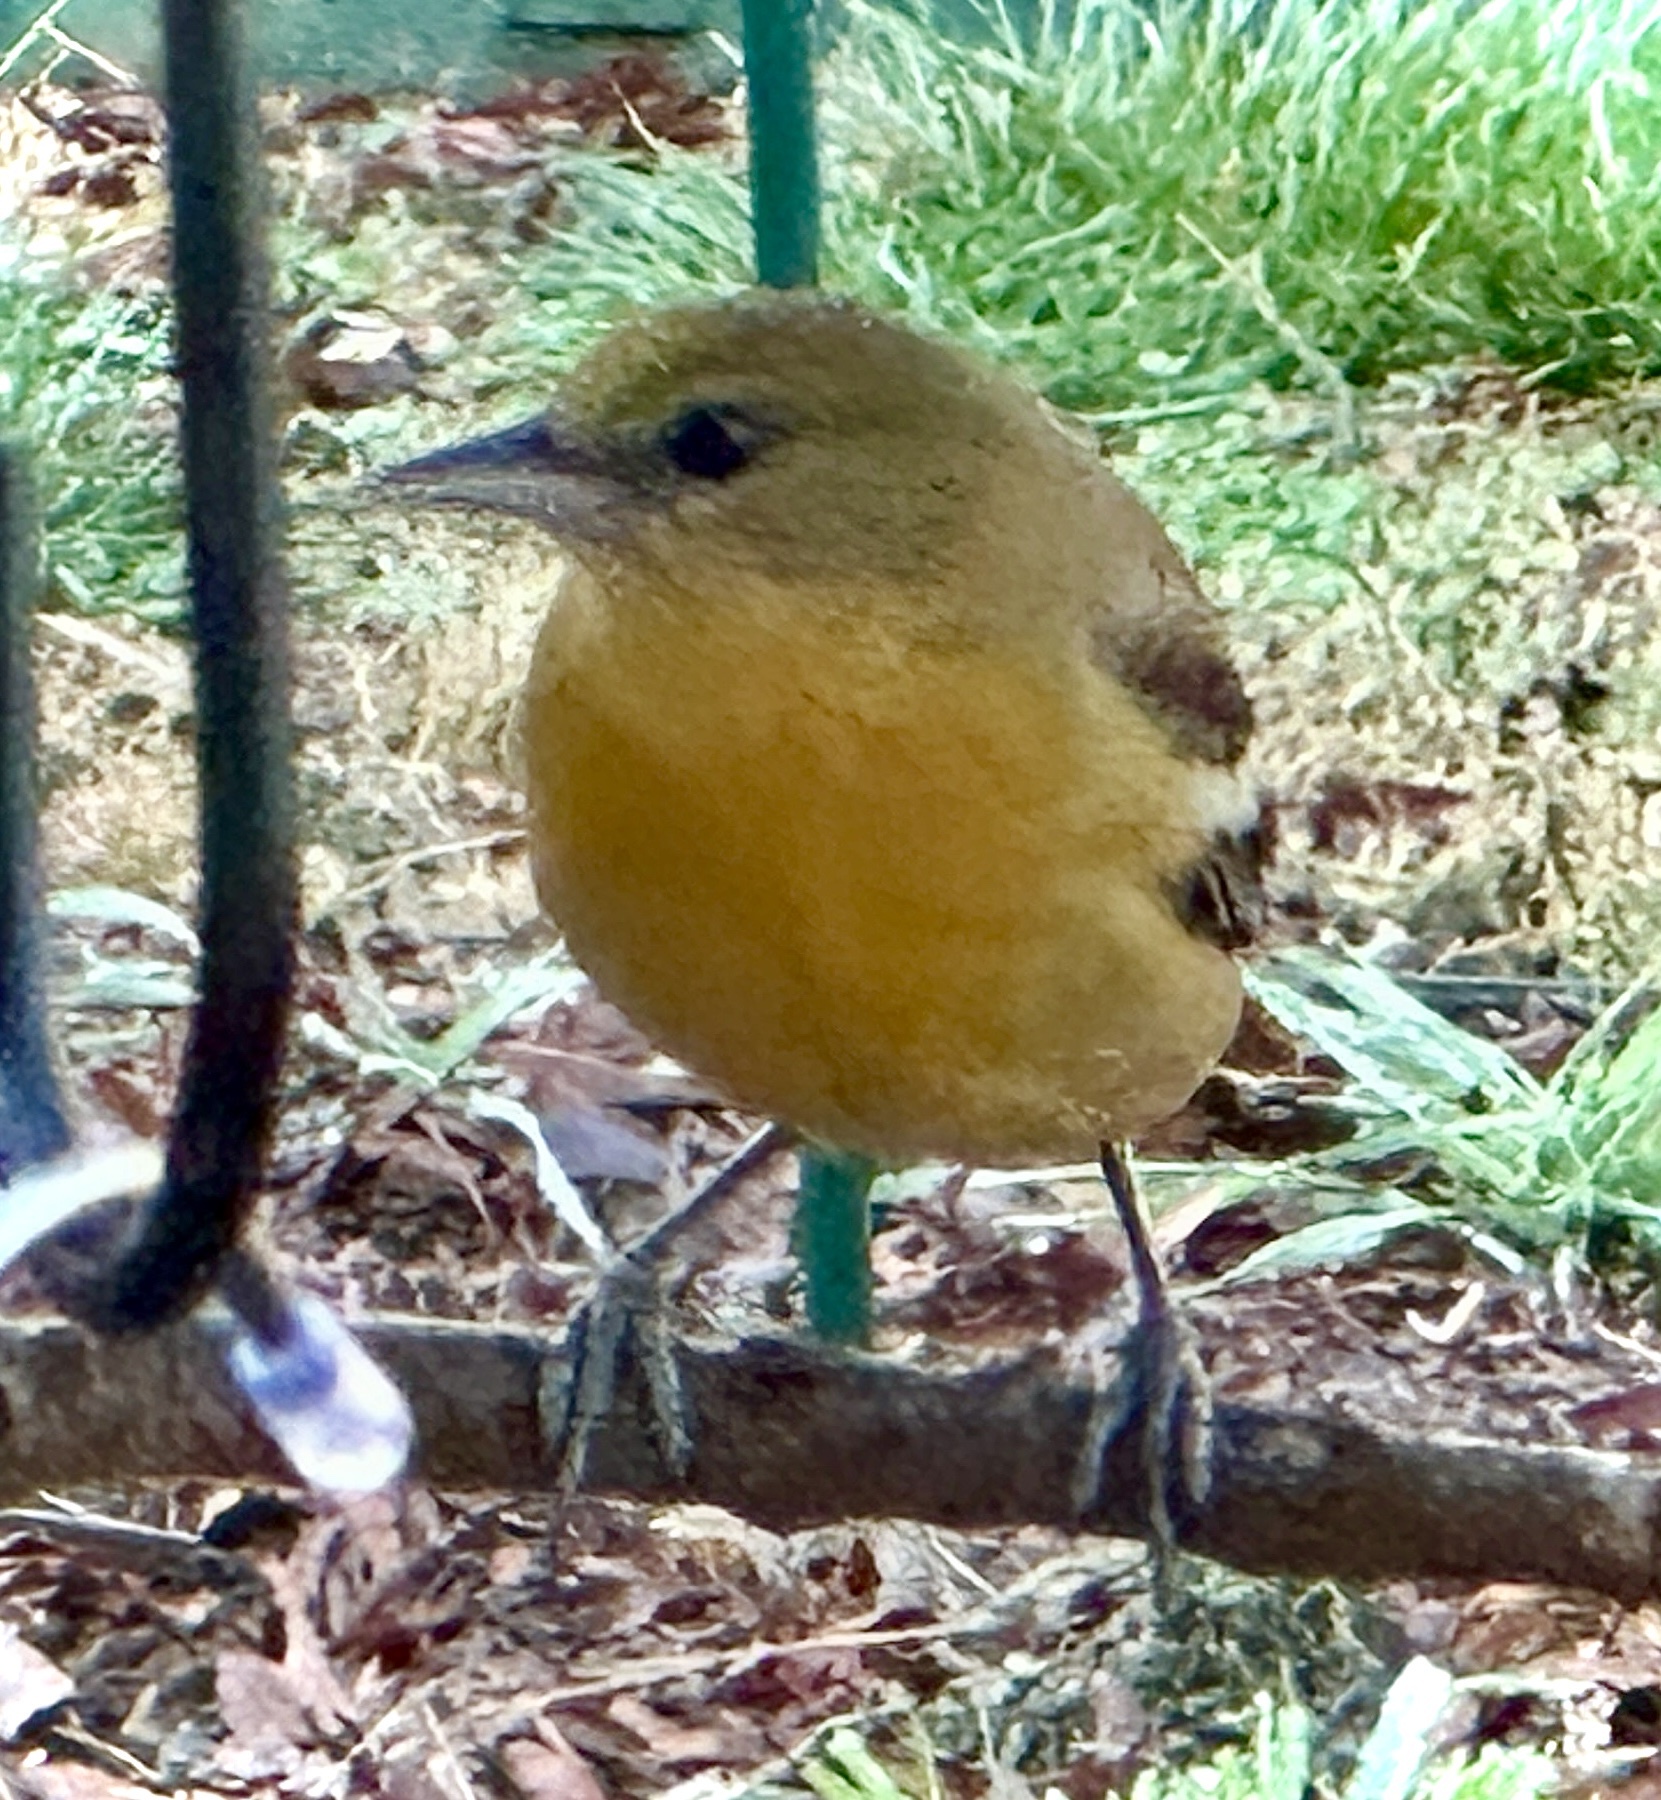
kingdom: Animalia
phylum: Chordata
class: Aves
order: Passeriformes
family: Icteridae
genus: Icterus
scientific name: Icterus galbula
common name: Baltimore oriole
